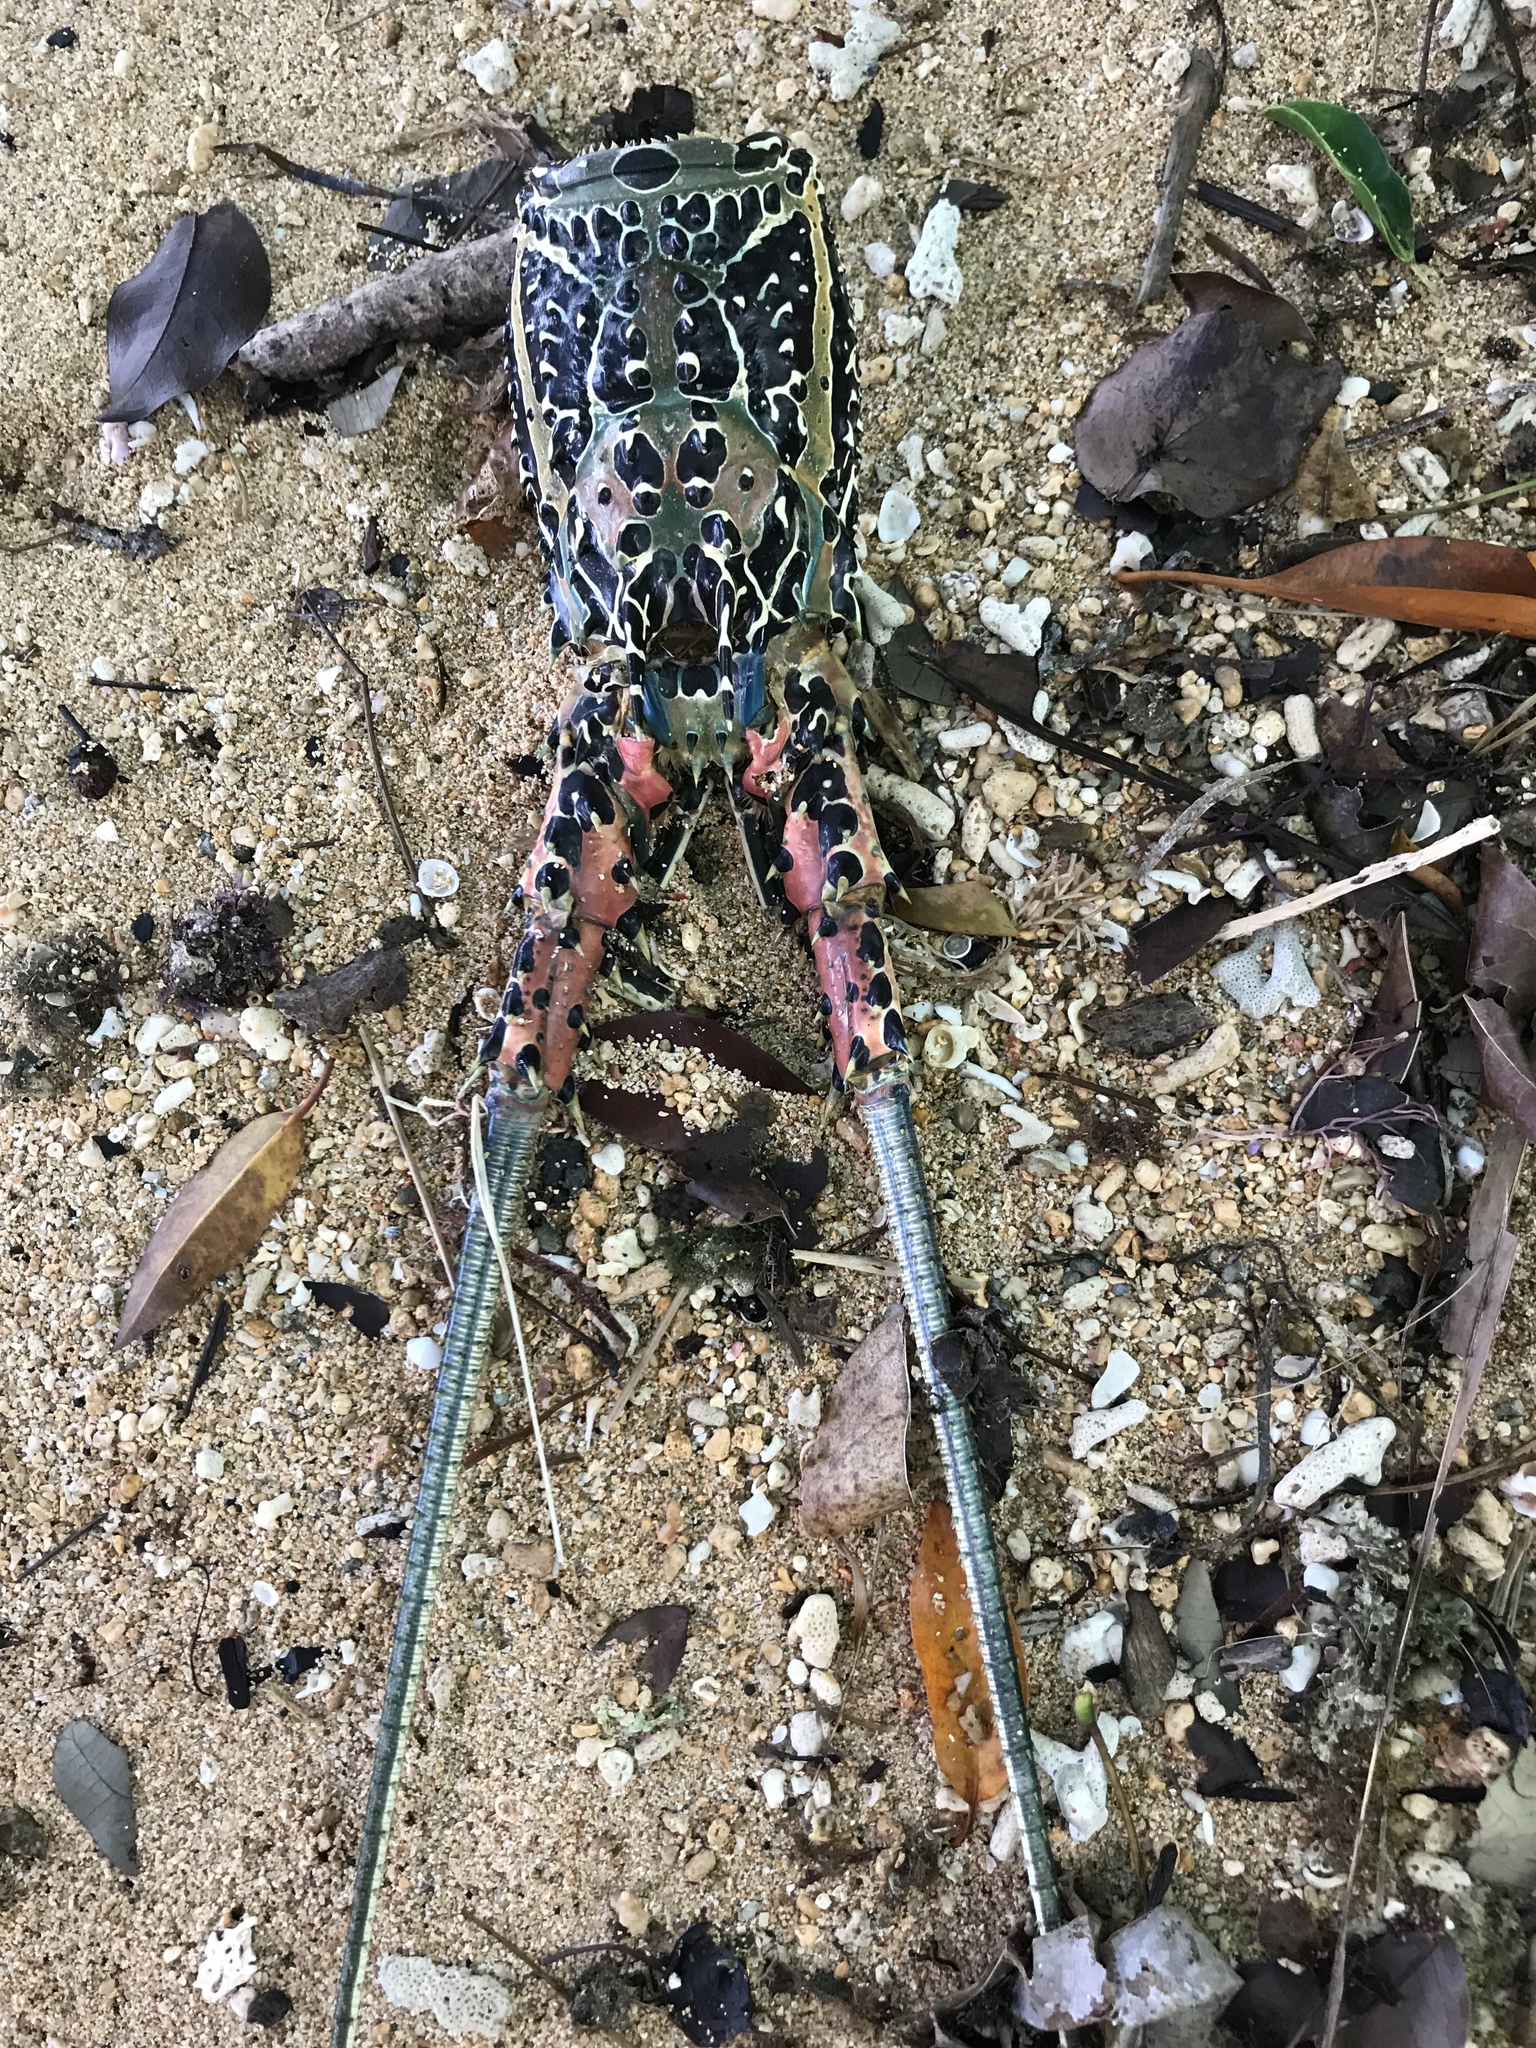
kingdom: Animalia
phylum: Arthropoda
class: Malacostraca
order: Decapoda
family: Palinuridae
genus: Panulirus
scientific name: Panulirus versicolor
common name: Painted spiny lobster
